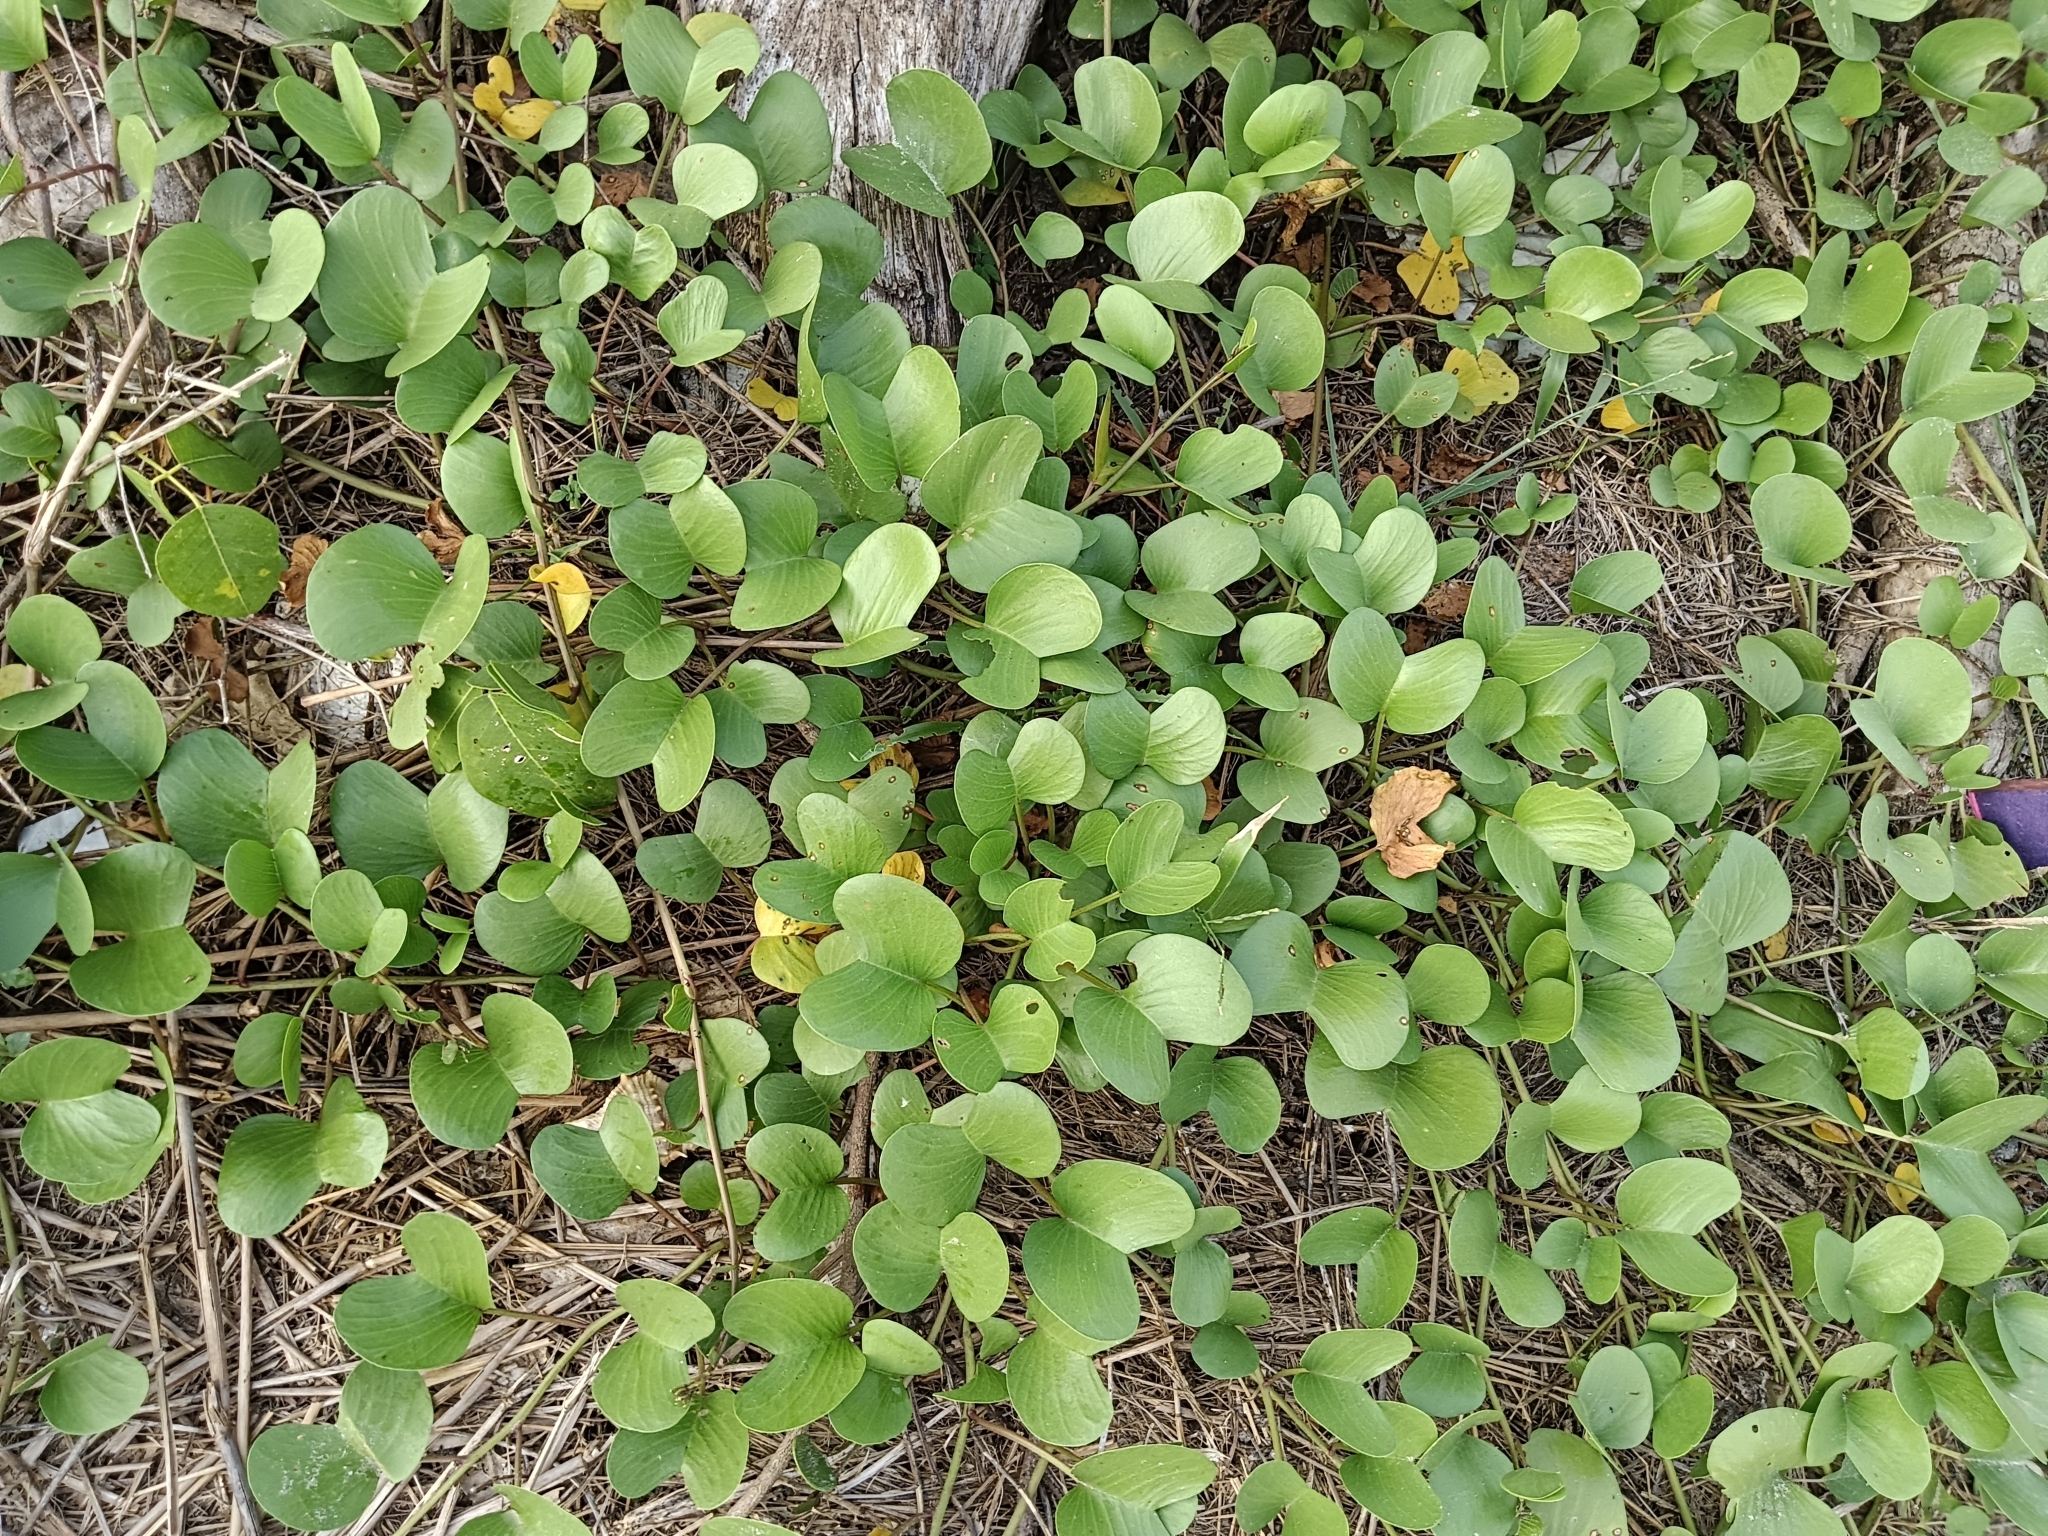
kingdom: Plantae
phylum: Tracheophyta
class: Magnoliopsida
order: Solanales
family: Convolvulaceae
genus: Ipomoea
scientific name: Ipomoea pes-caprae
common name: Beach morning glory
